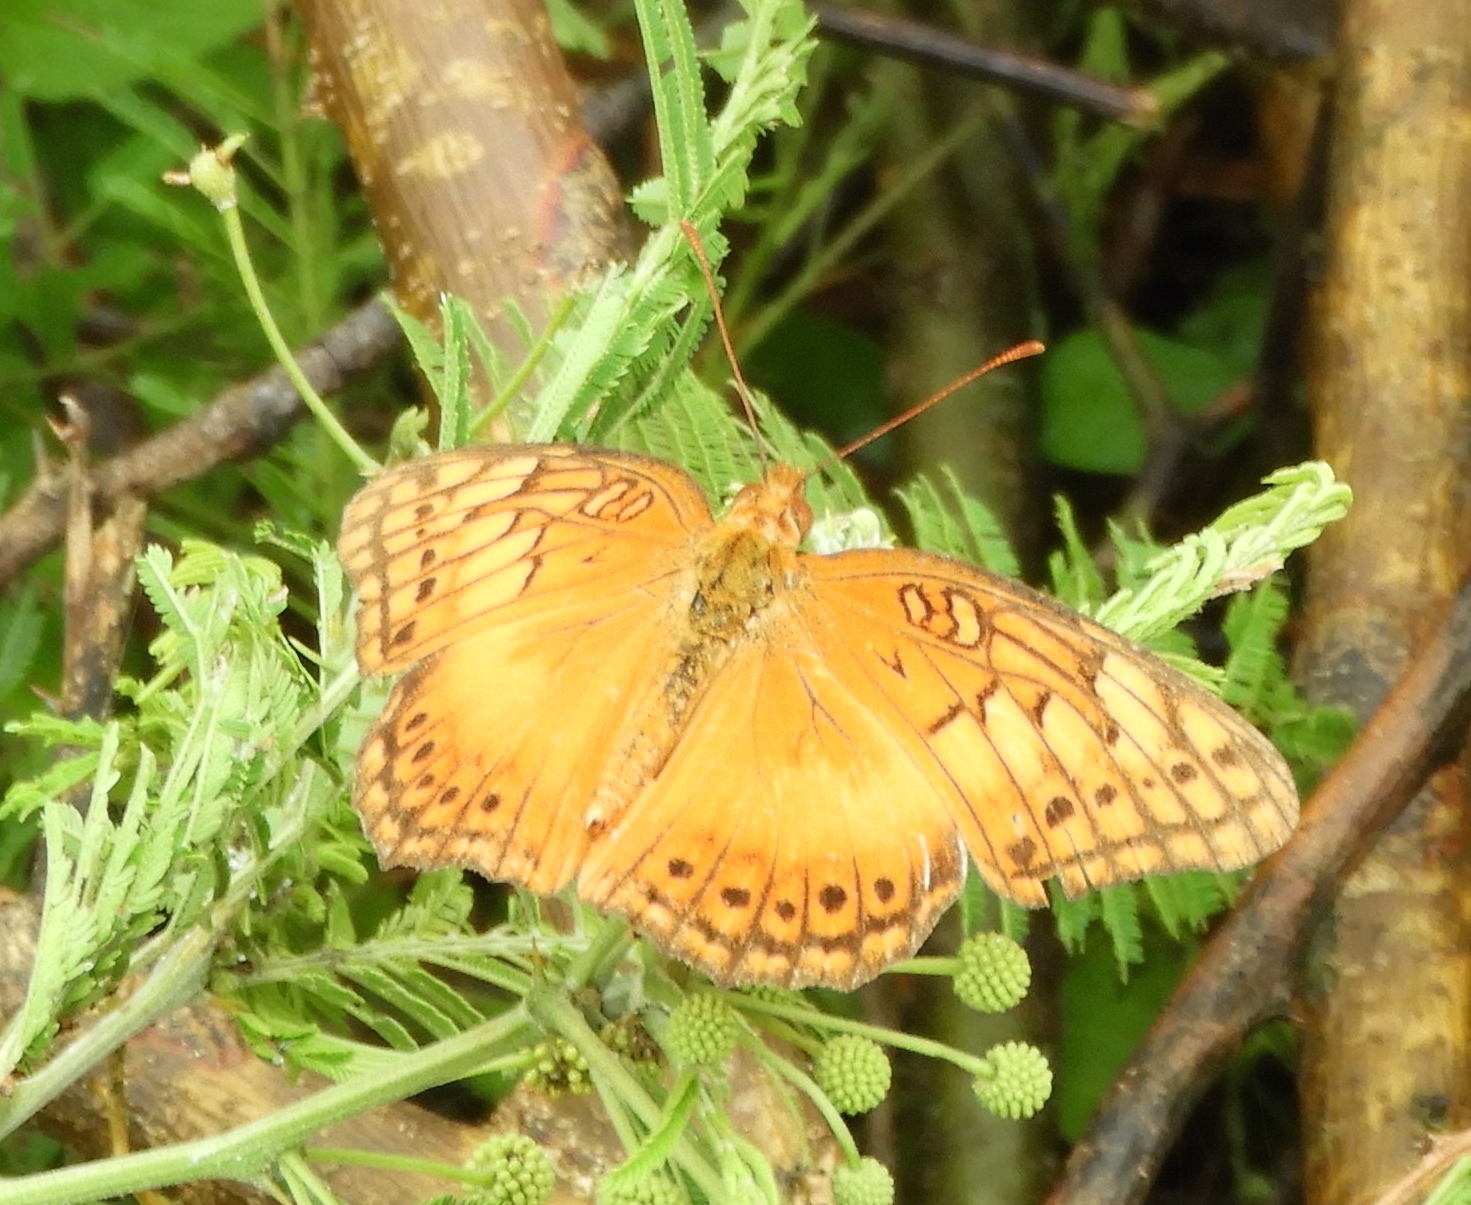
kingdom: Animalia
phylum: Arthropoda
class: Insecta
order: Lepidoptera
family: Nymphalidae
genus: Euptoieta
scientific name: Euptoieta hegesia
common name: Mexican fritillary
